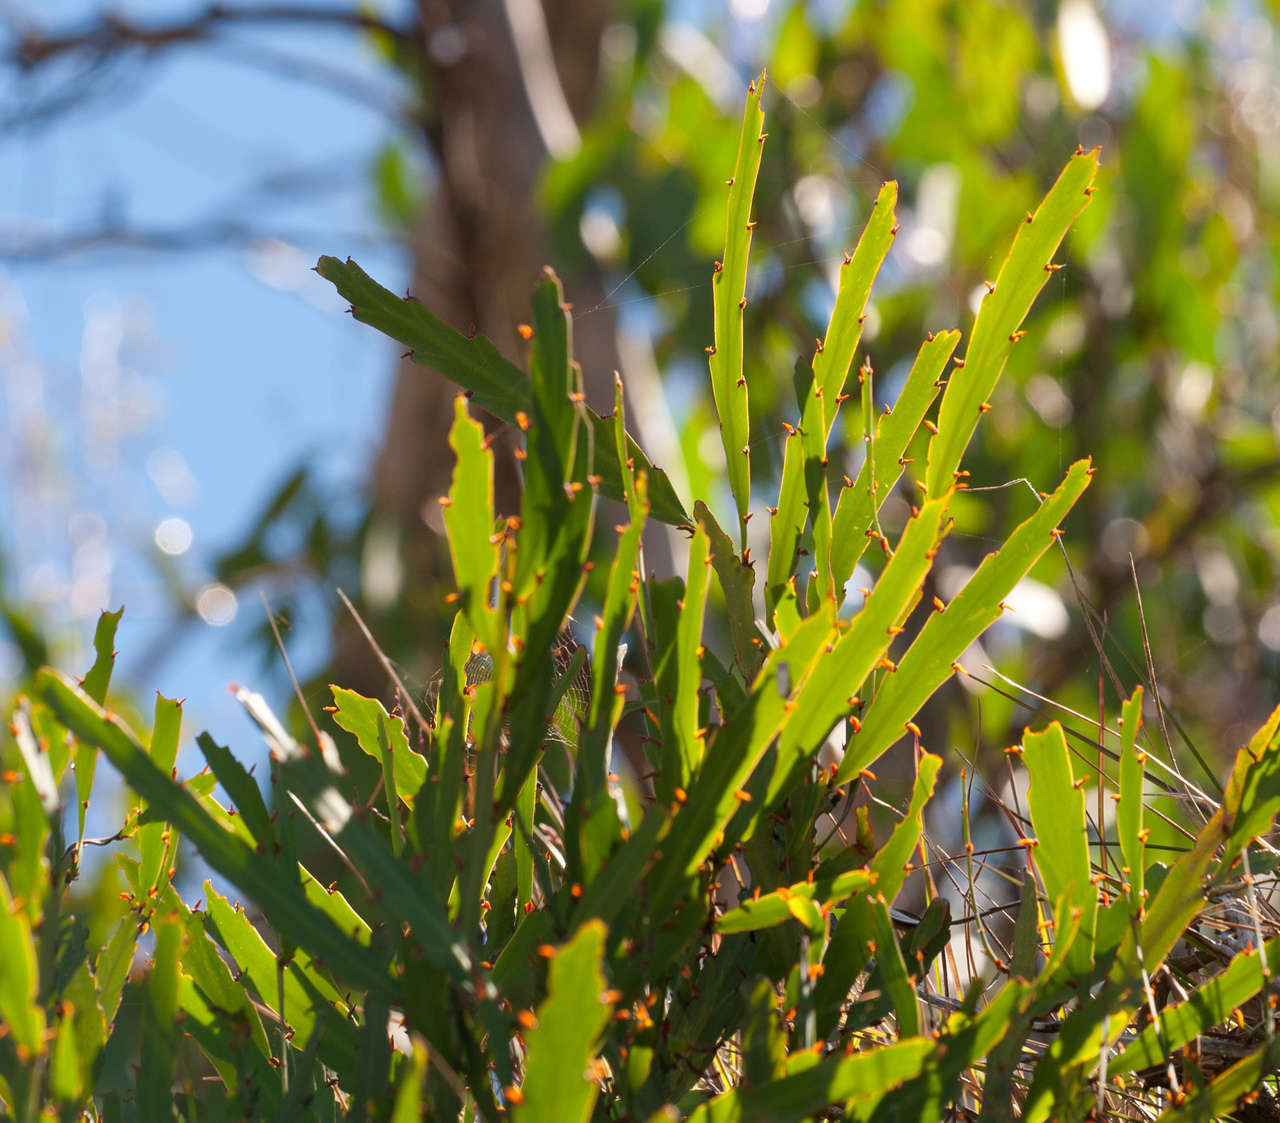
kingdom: Plantae
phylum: Tracheophyta
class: Magnoliopsida
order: Fabales
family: Fabaceae
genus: Bossiaea
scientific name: Bossiaea bracteosa
